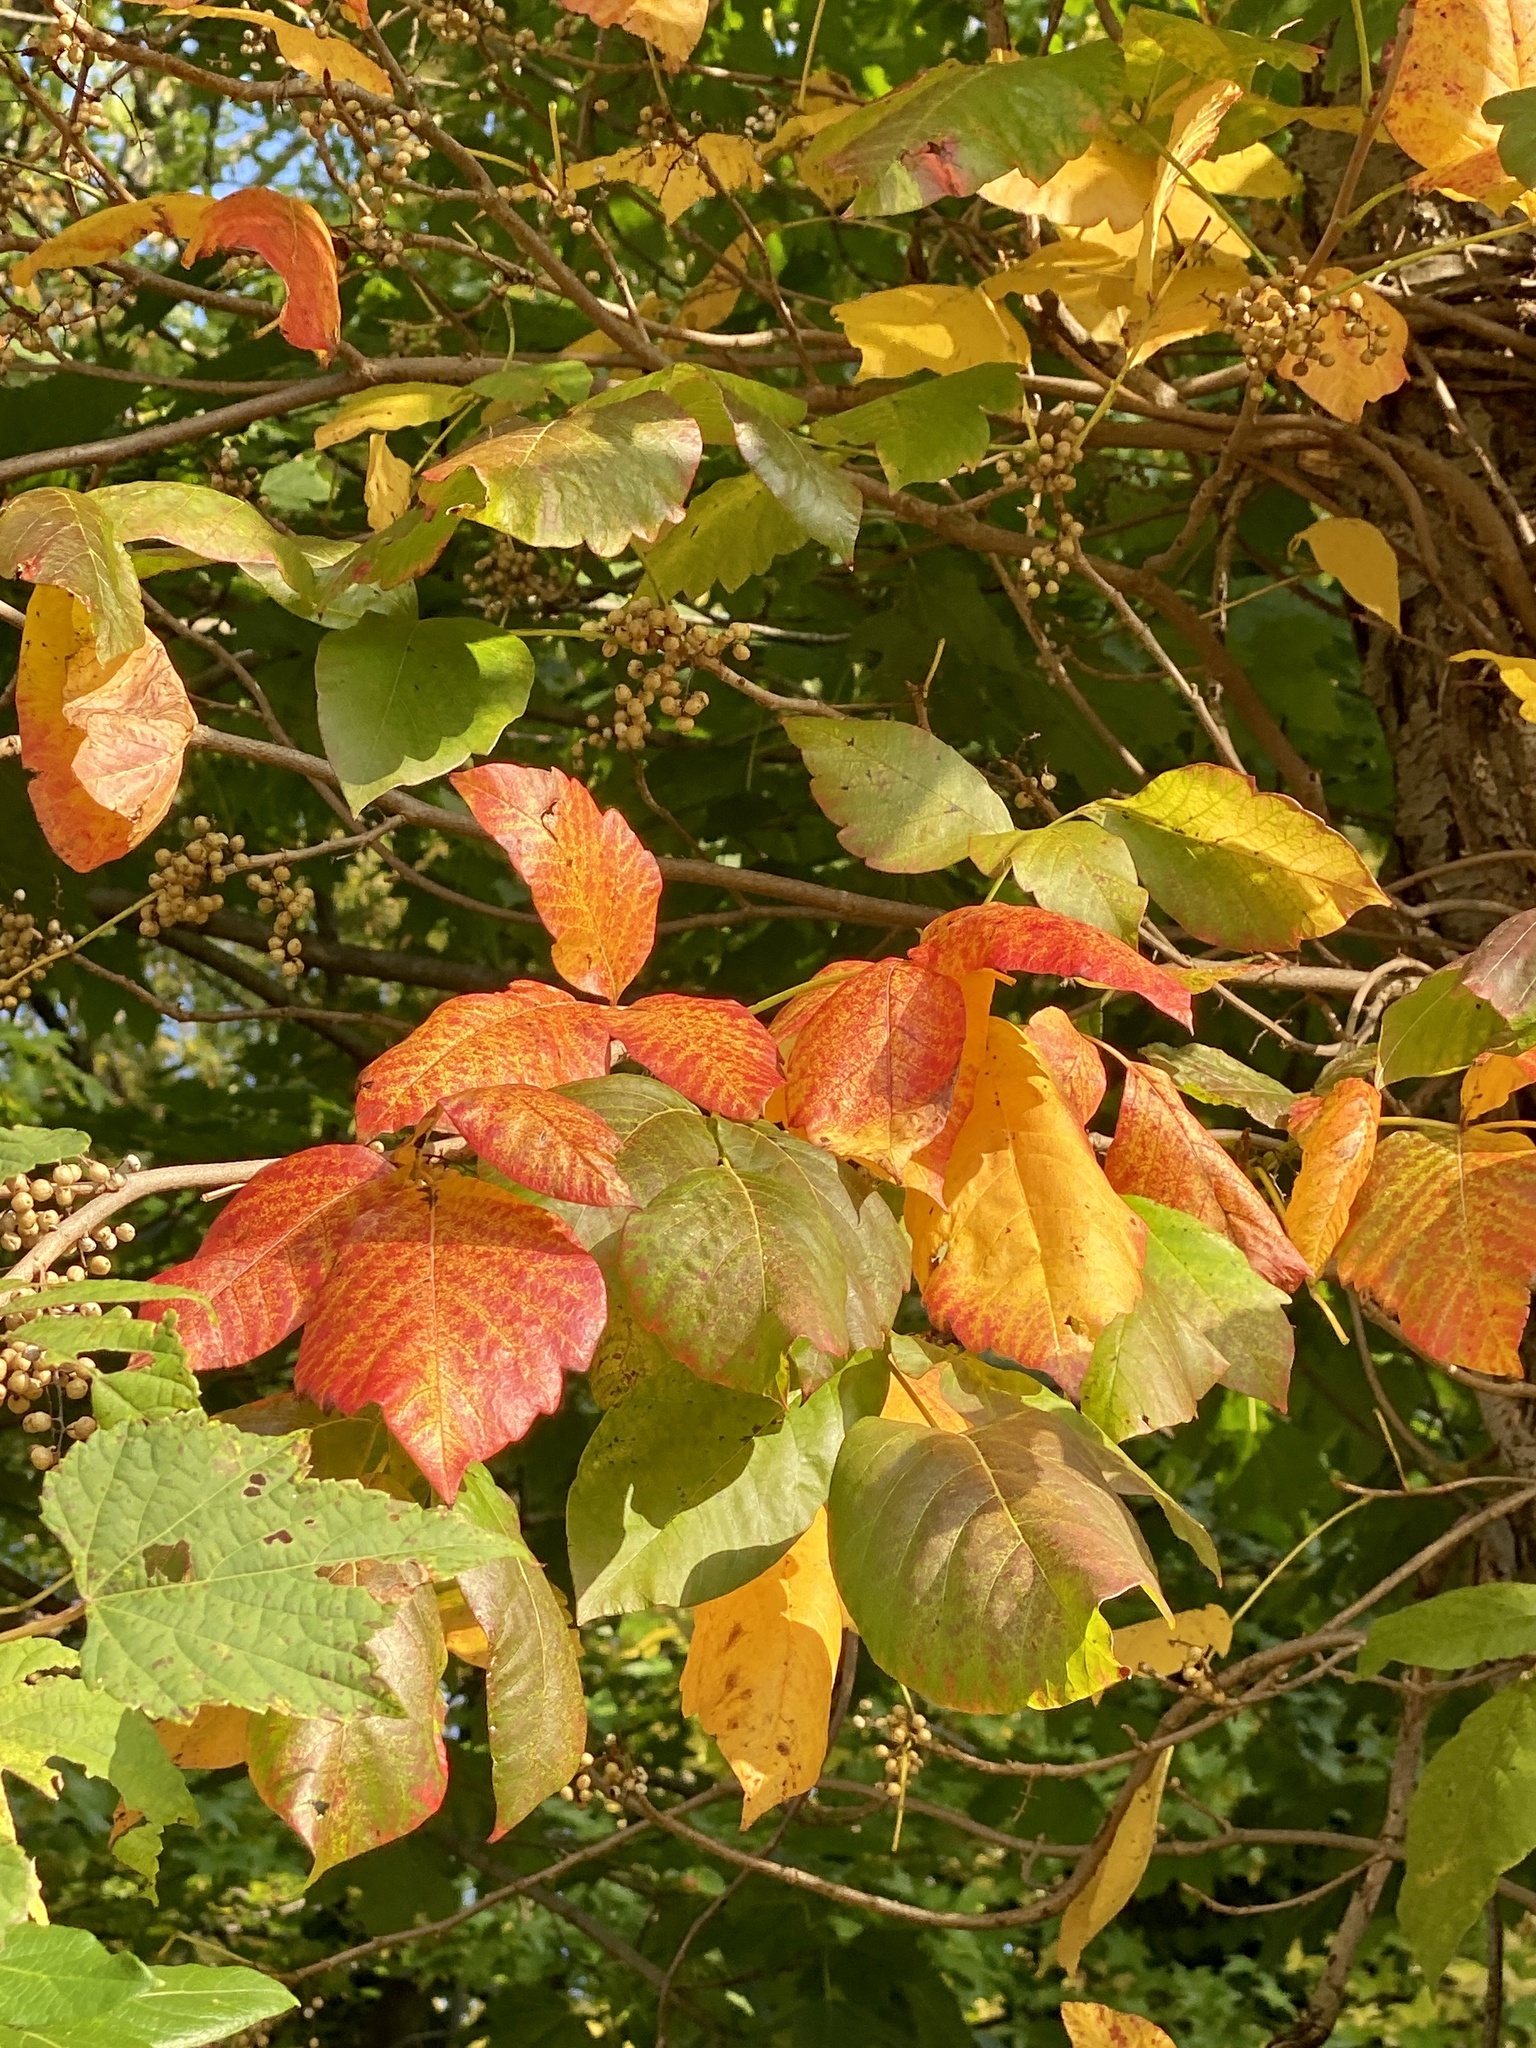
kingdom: Plantae
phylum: Tracheophyta
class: Magnoliopsida
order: Sapindales
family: Anacardiaceae
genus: Toxicodendron
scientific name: Toxicodendron radicans
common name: Poison ivy
